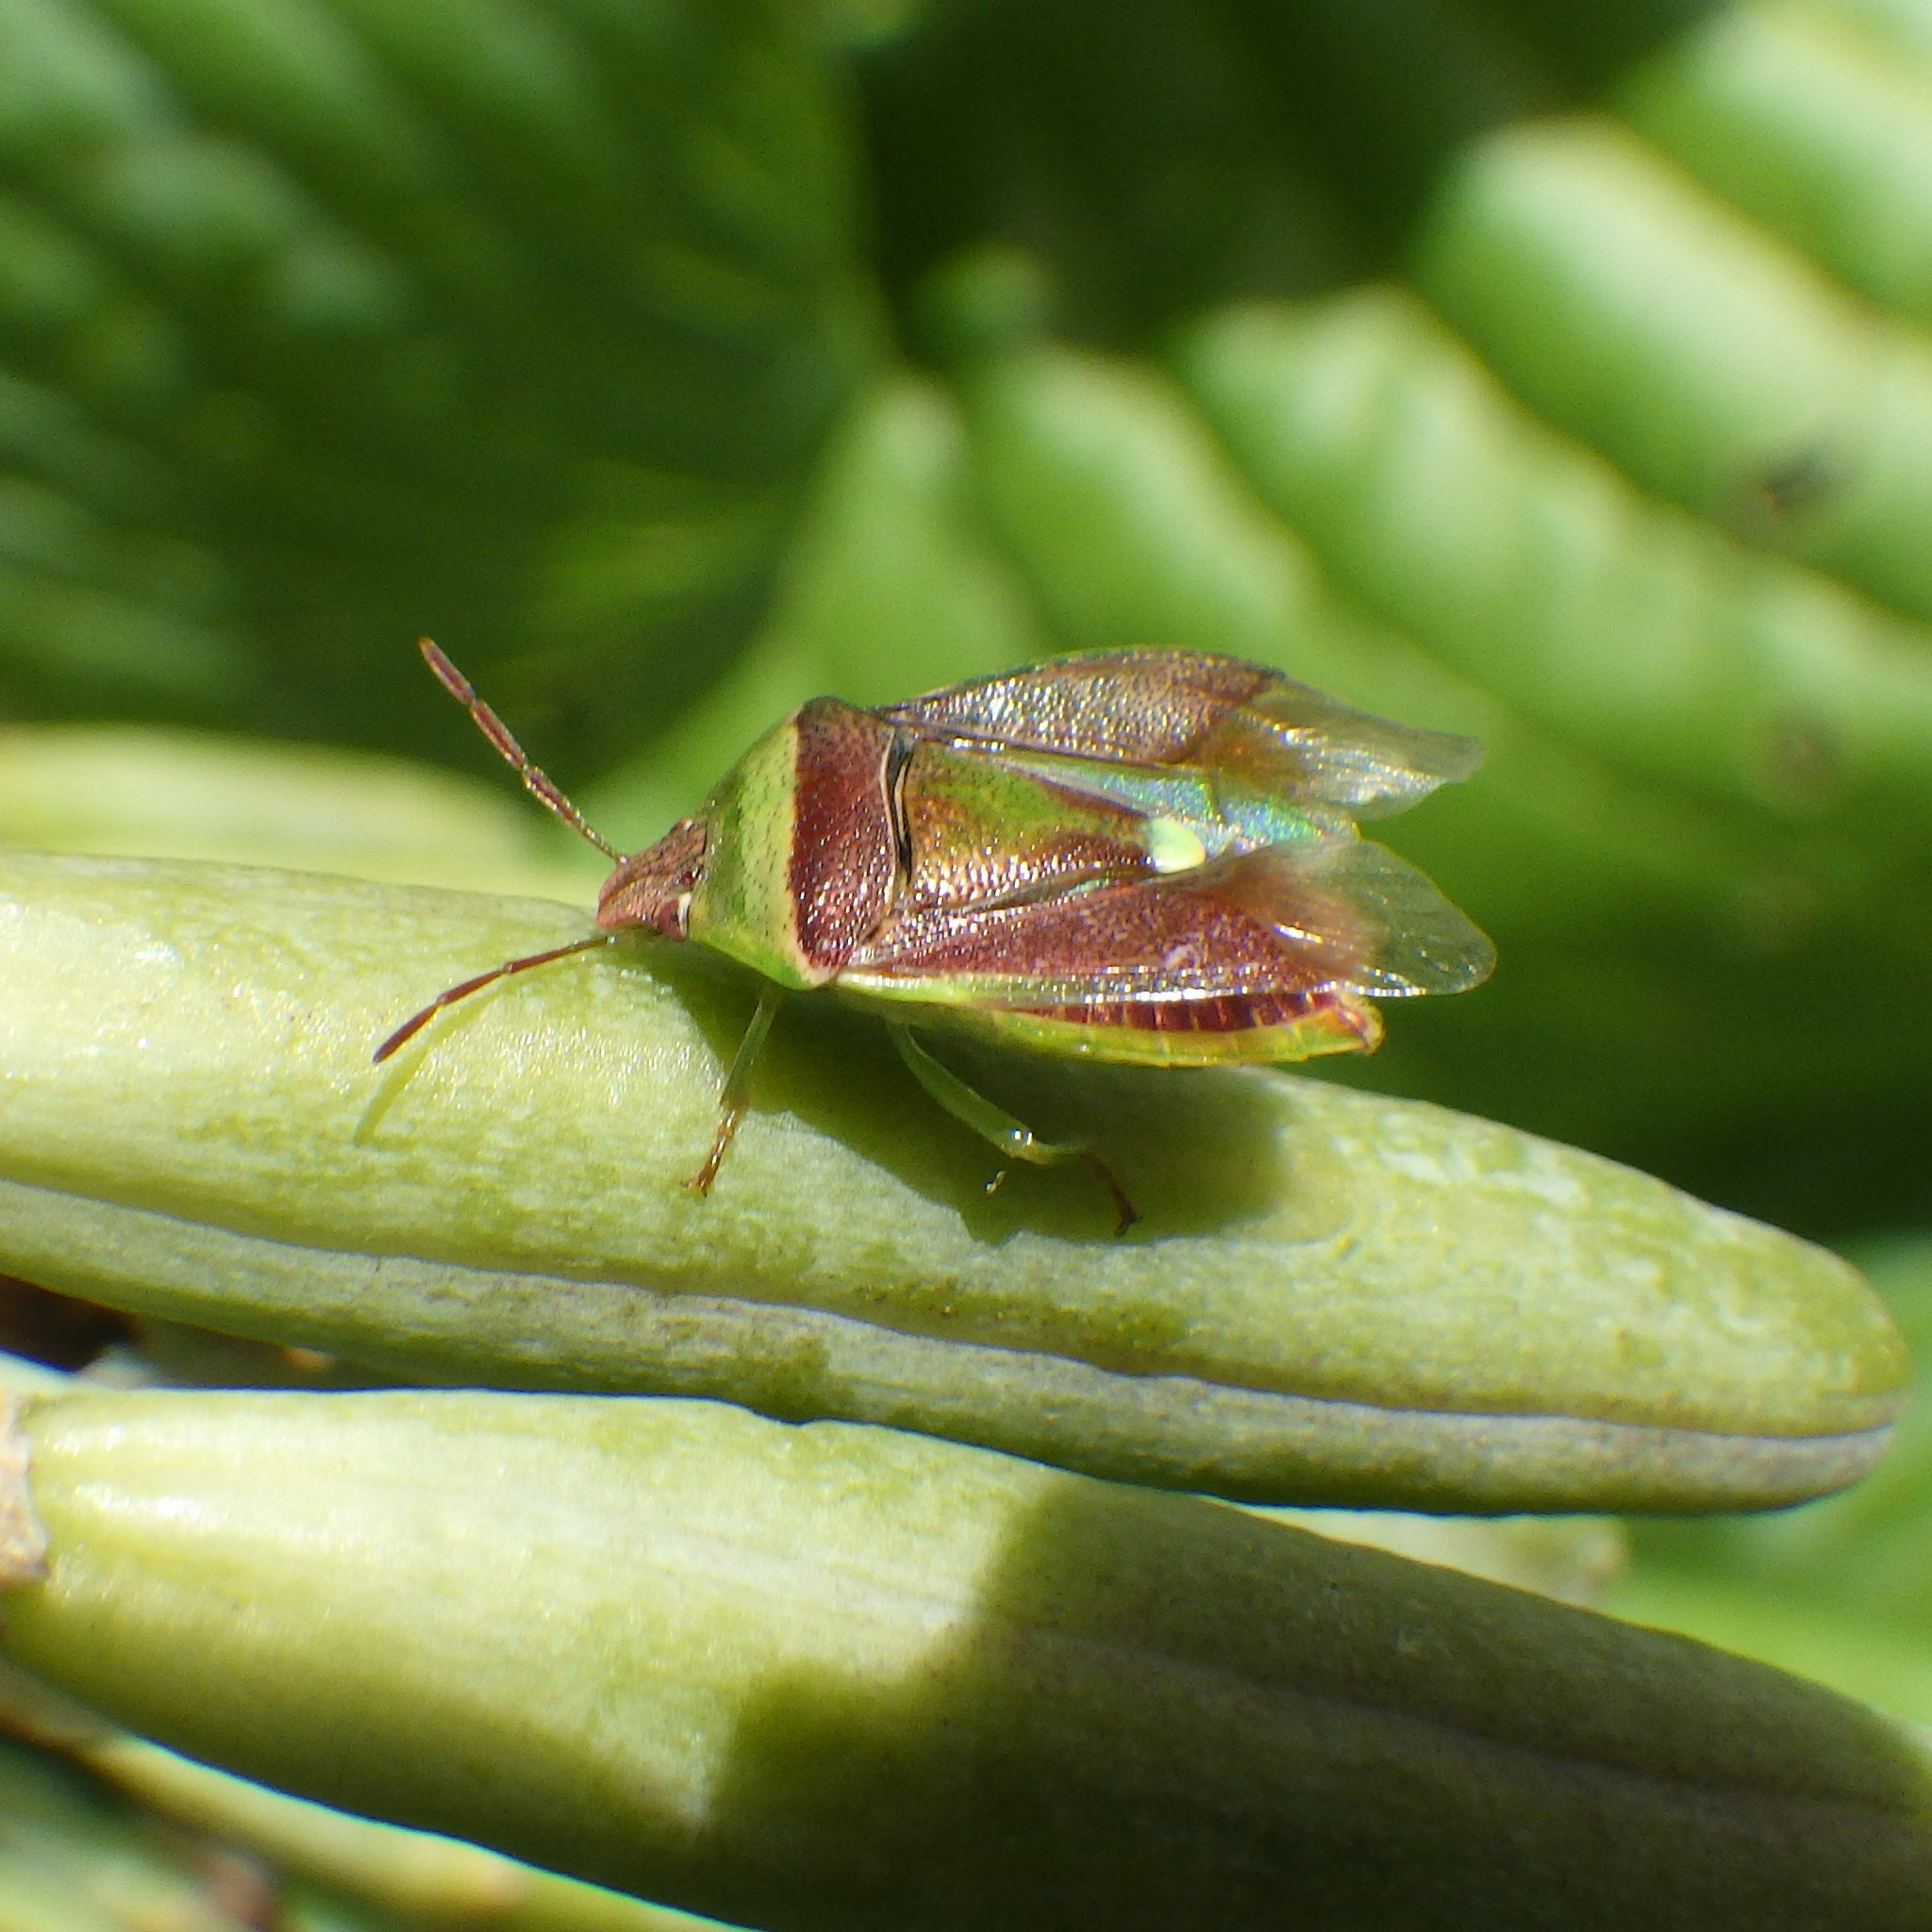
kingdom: Animalia
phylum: Arthropoda
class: Insecta
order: Hemiptera
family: Pentatomidae
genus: Banasa
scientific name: Banasa dimidiata
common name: Green burgundy stink bug
